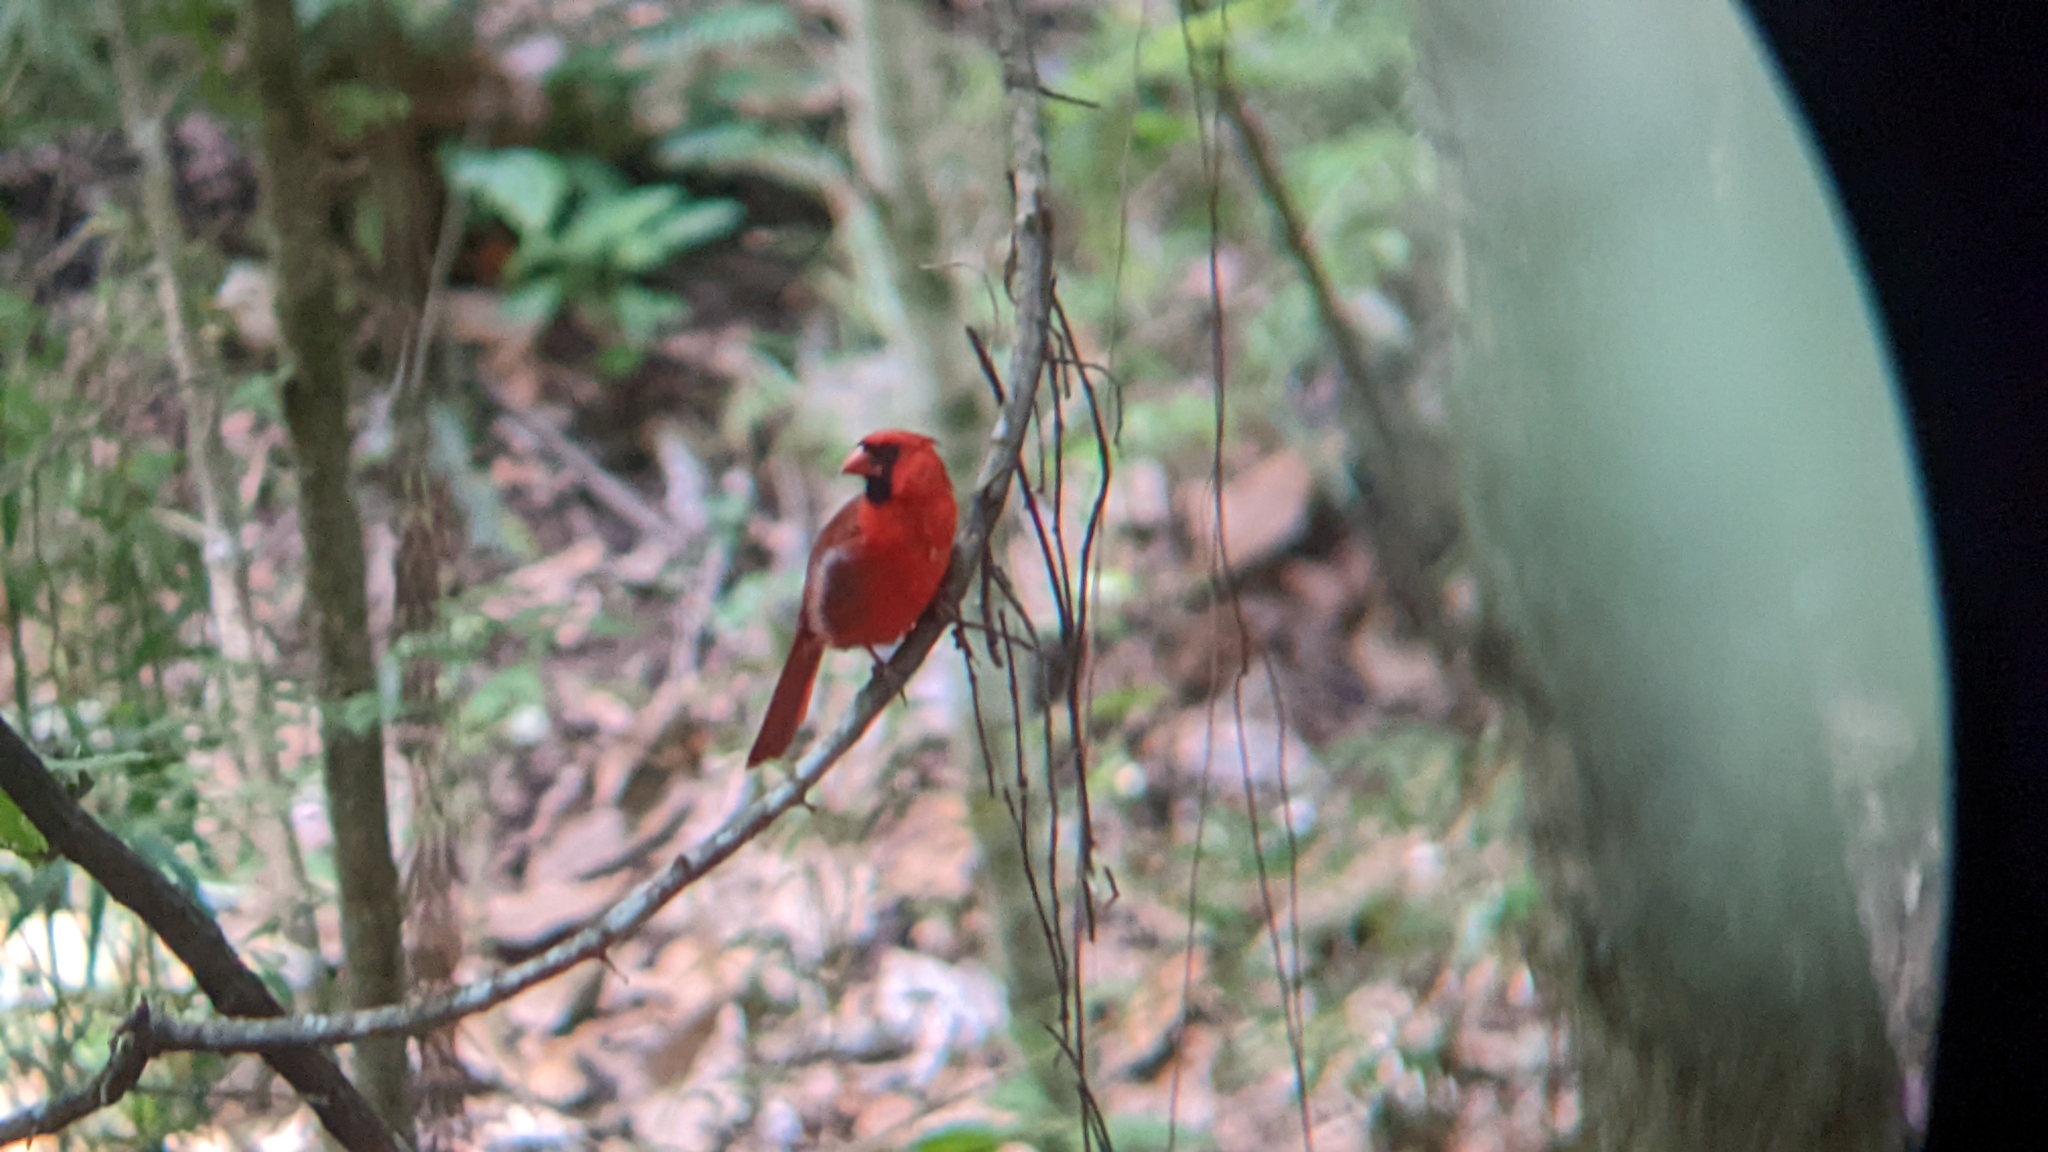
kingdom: Animalia
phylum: Chordata
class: Aves
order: Passeriformes
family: Cardinalidae
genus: Cardinalis
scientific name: Cardinalis cardinalis
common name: Northern cardinal
